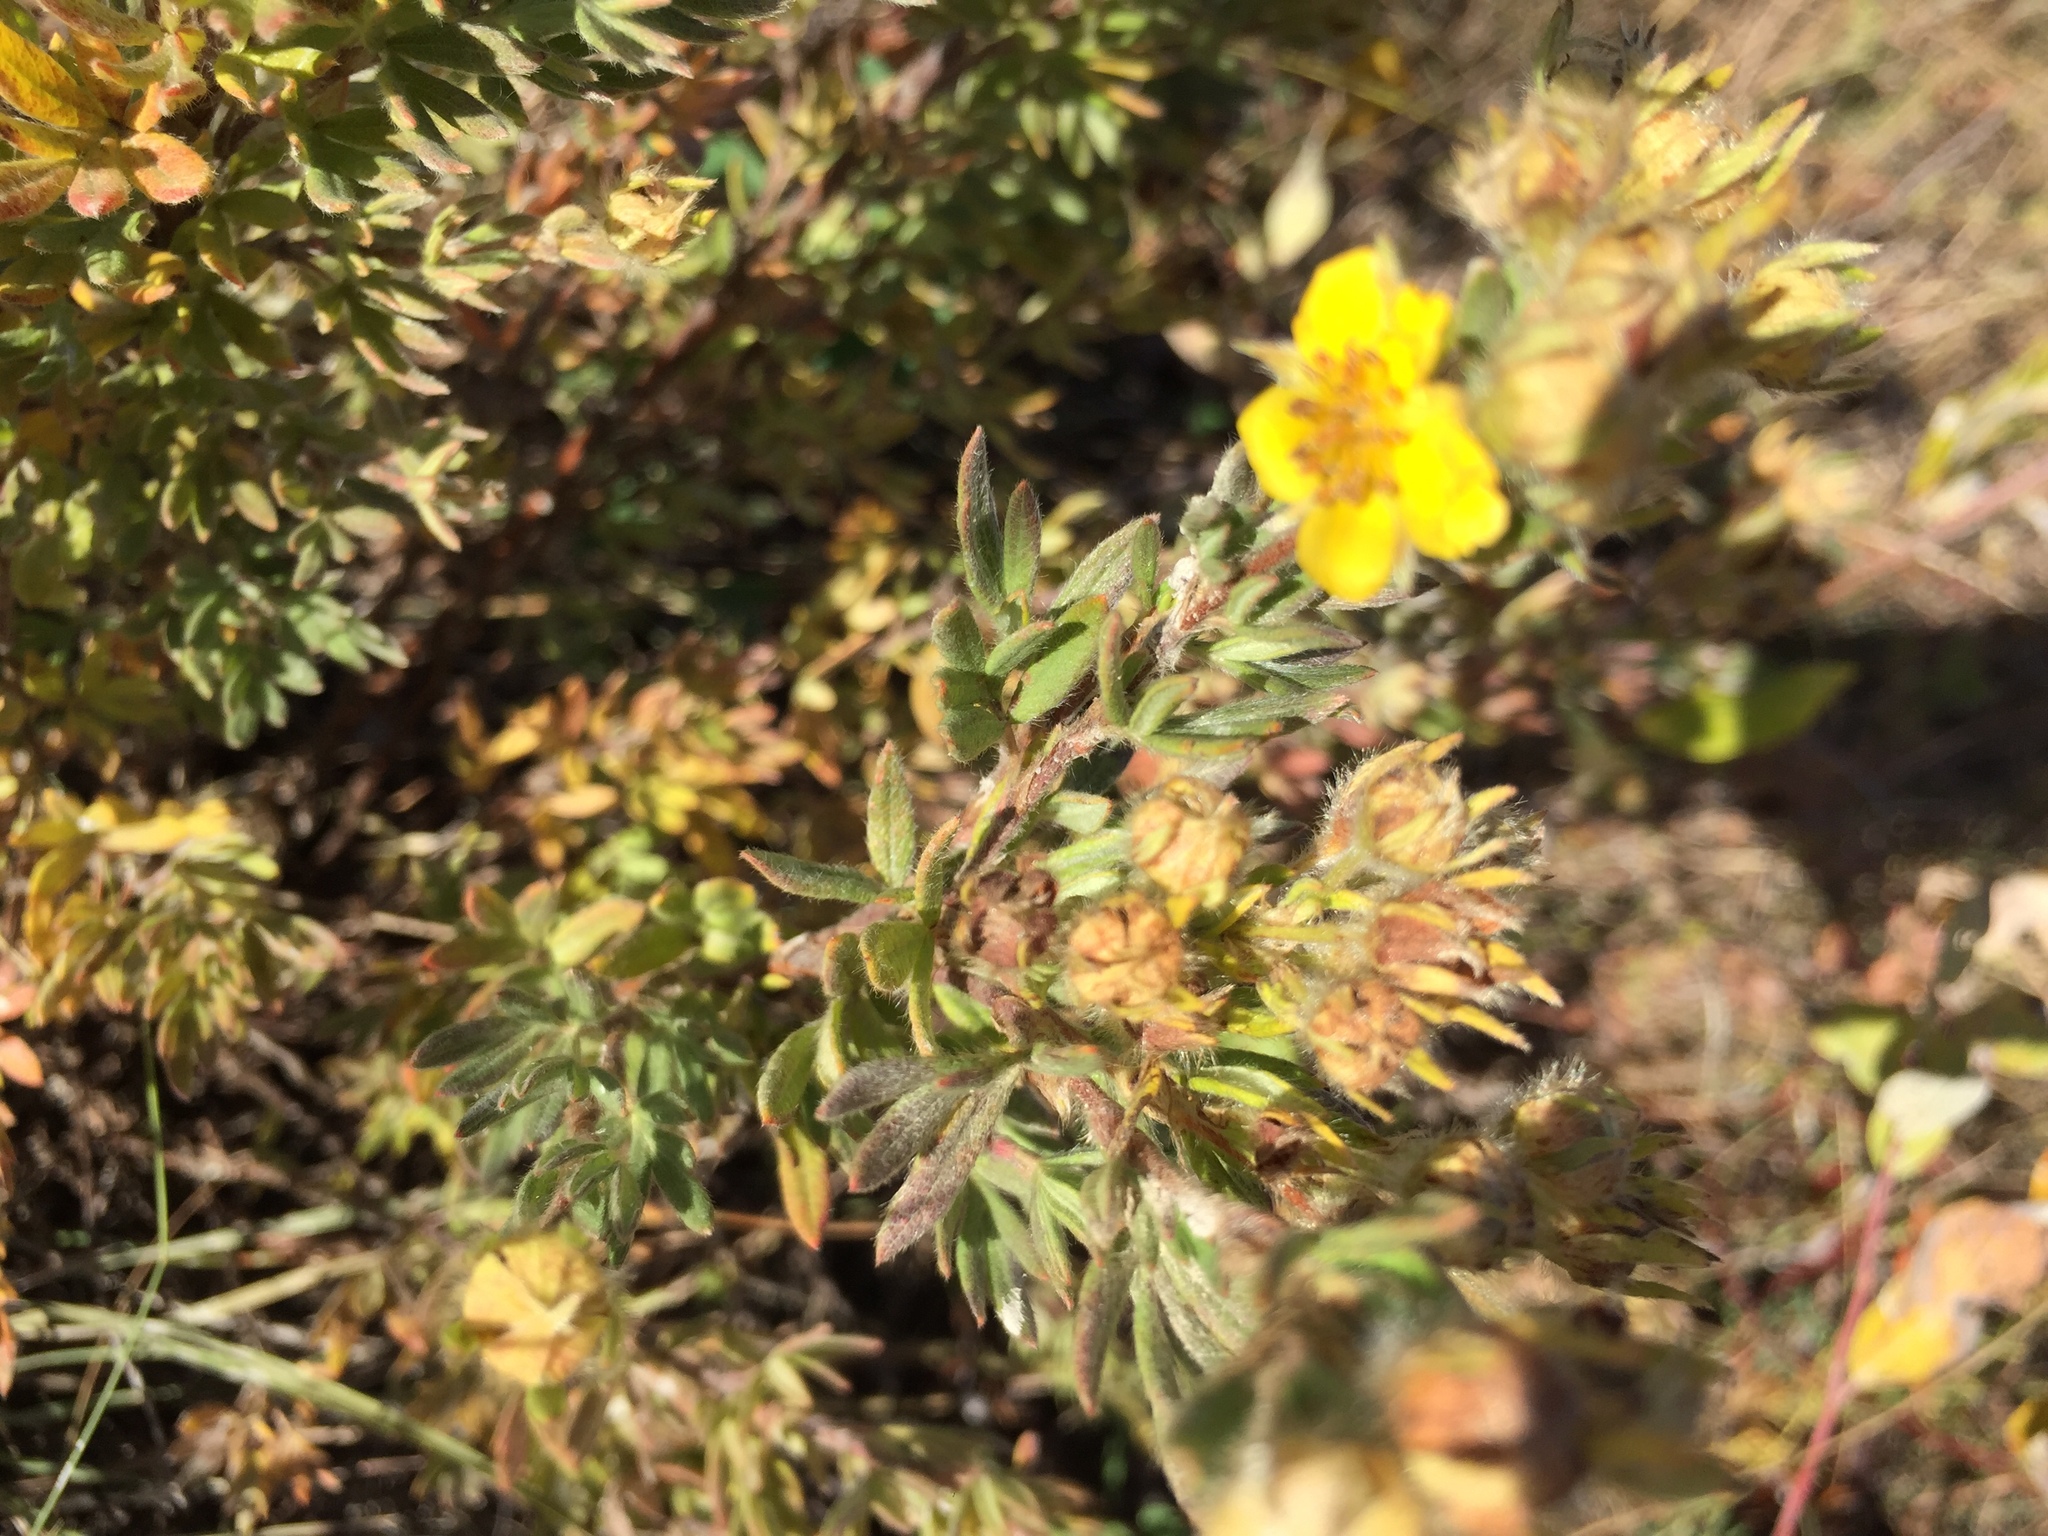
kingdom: Plantae
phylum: Tracheophyta
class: Magnoliopsida
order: Rosales
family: Rosaceae
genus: Dasiphora
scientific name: Dasiphora fruticosa
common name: Shrubby cinquefoil
